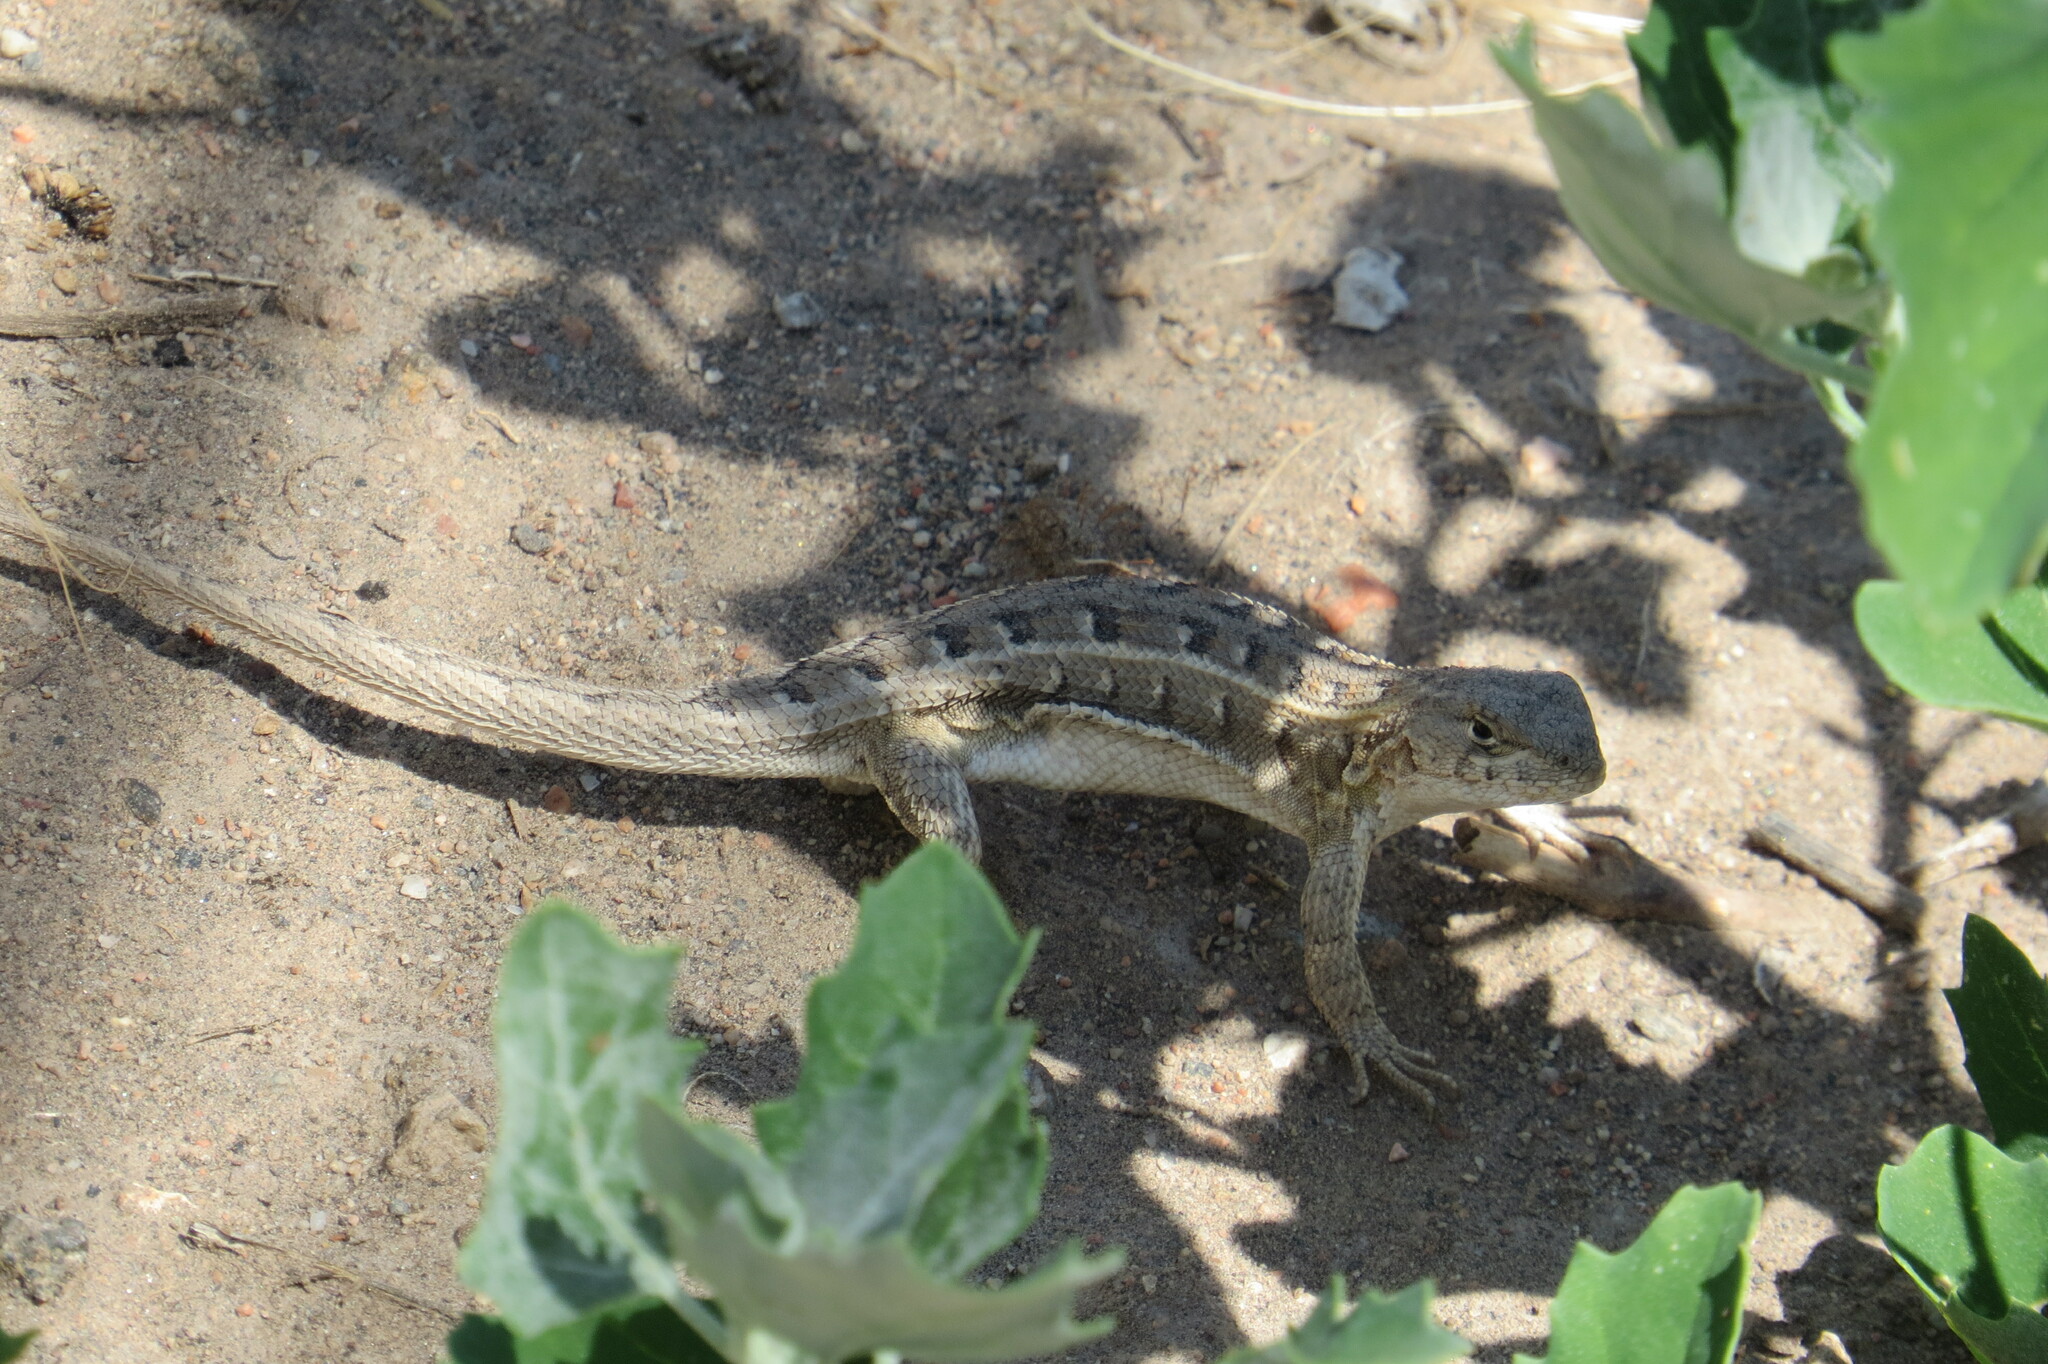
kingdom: Animalia
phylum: Chordata
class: Squamata
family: Liolaemidae
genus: Liolaemus
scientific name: Liolaemus wiegmannii
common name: Wiegmann's tree iguana
